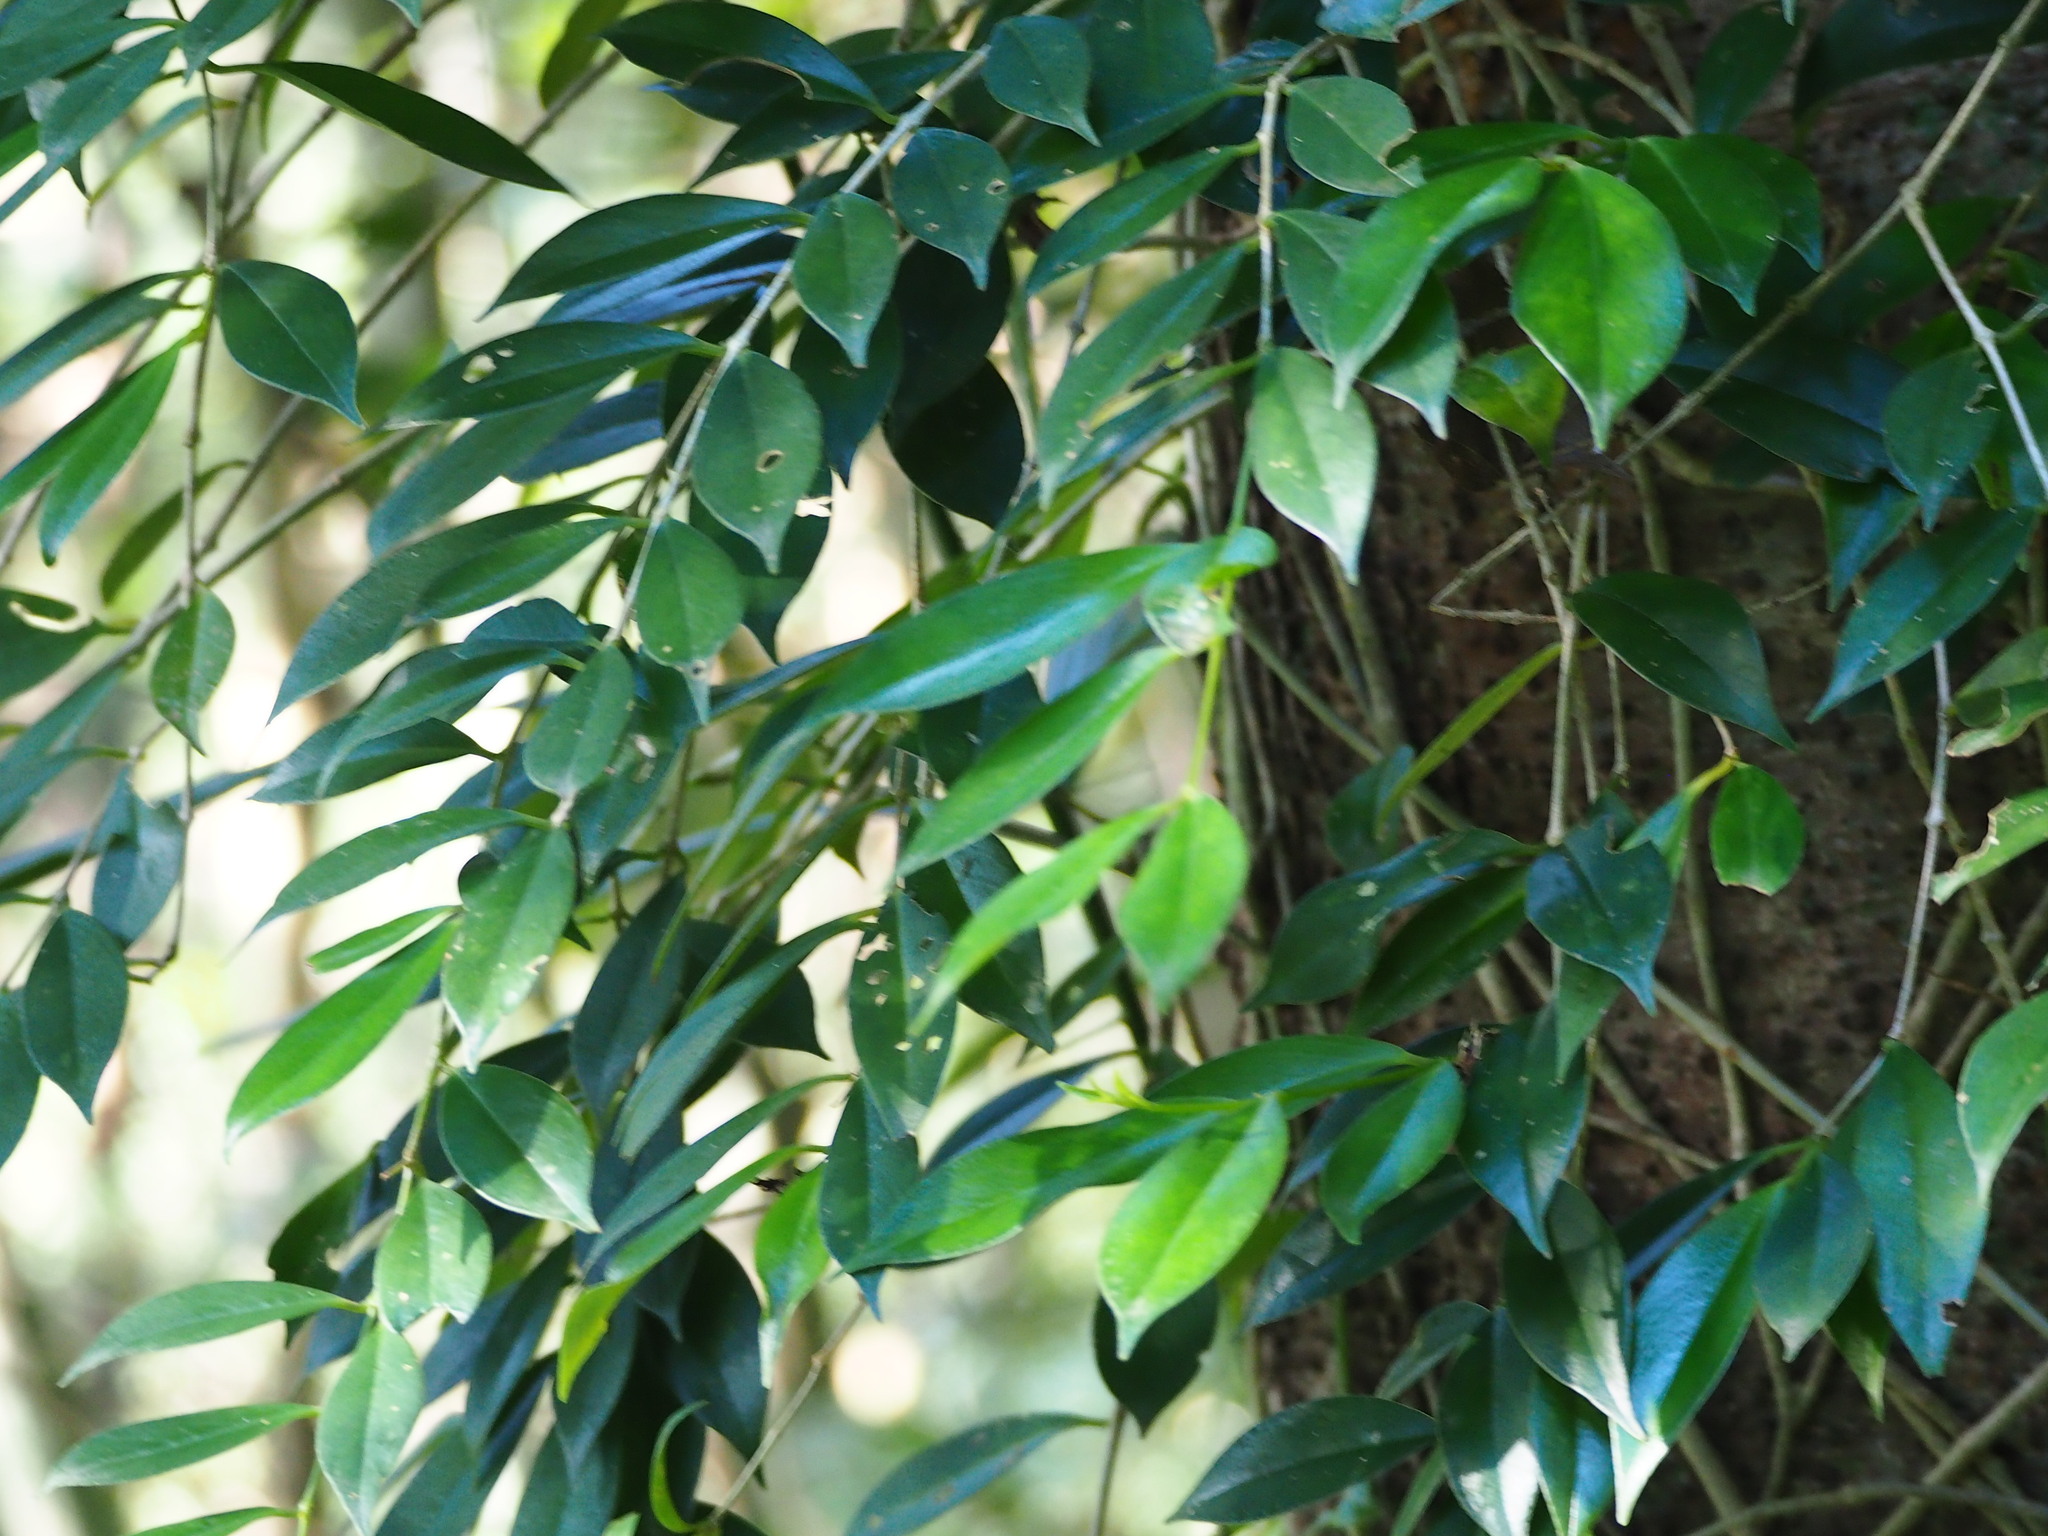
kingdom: Plantae
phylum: Tracheophyta
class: Magnoliopsida
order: Lamiales
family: Gesneriaceae
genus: Aeschynanthus
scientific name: Aeschynanthus acuminatus
